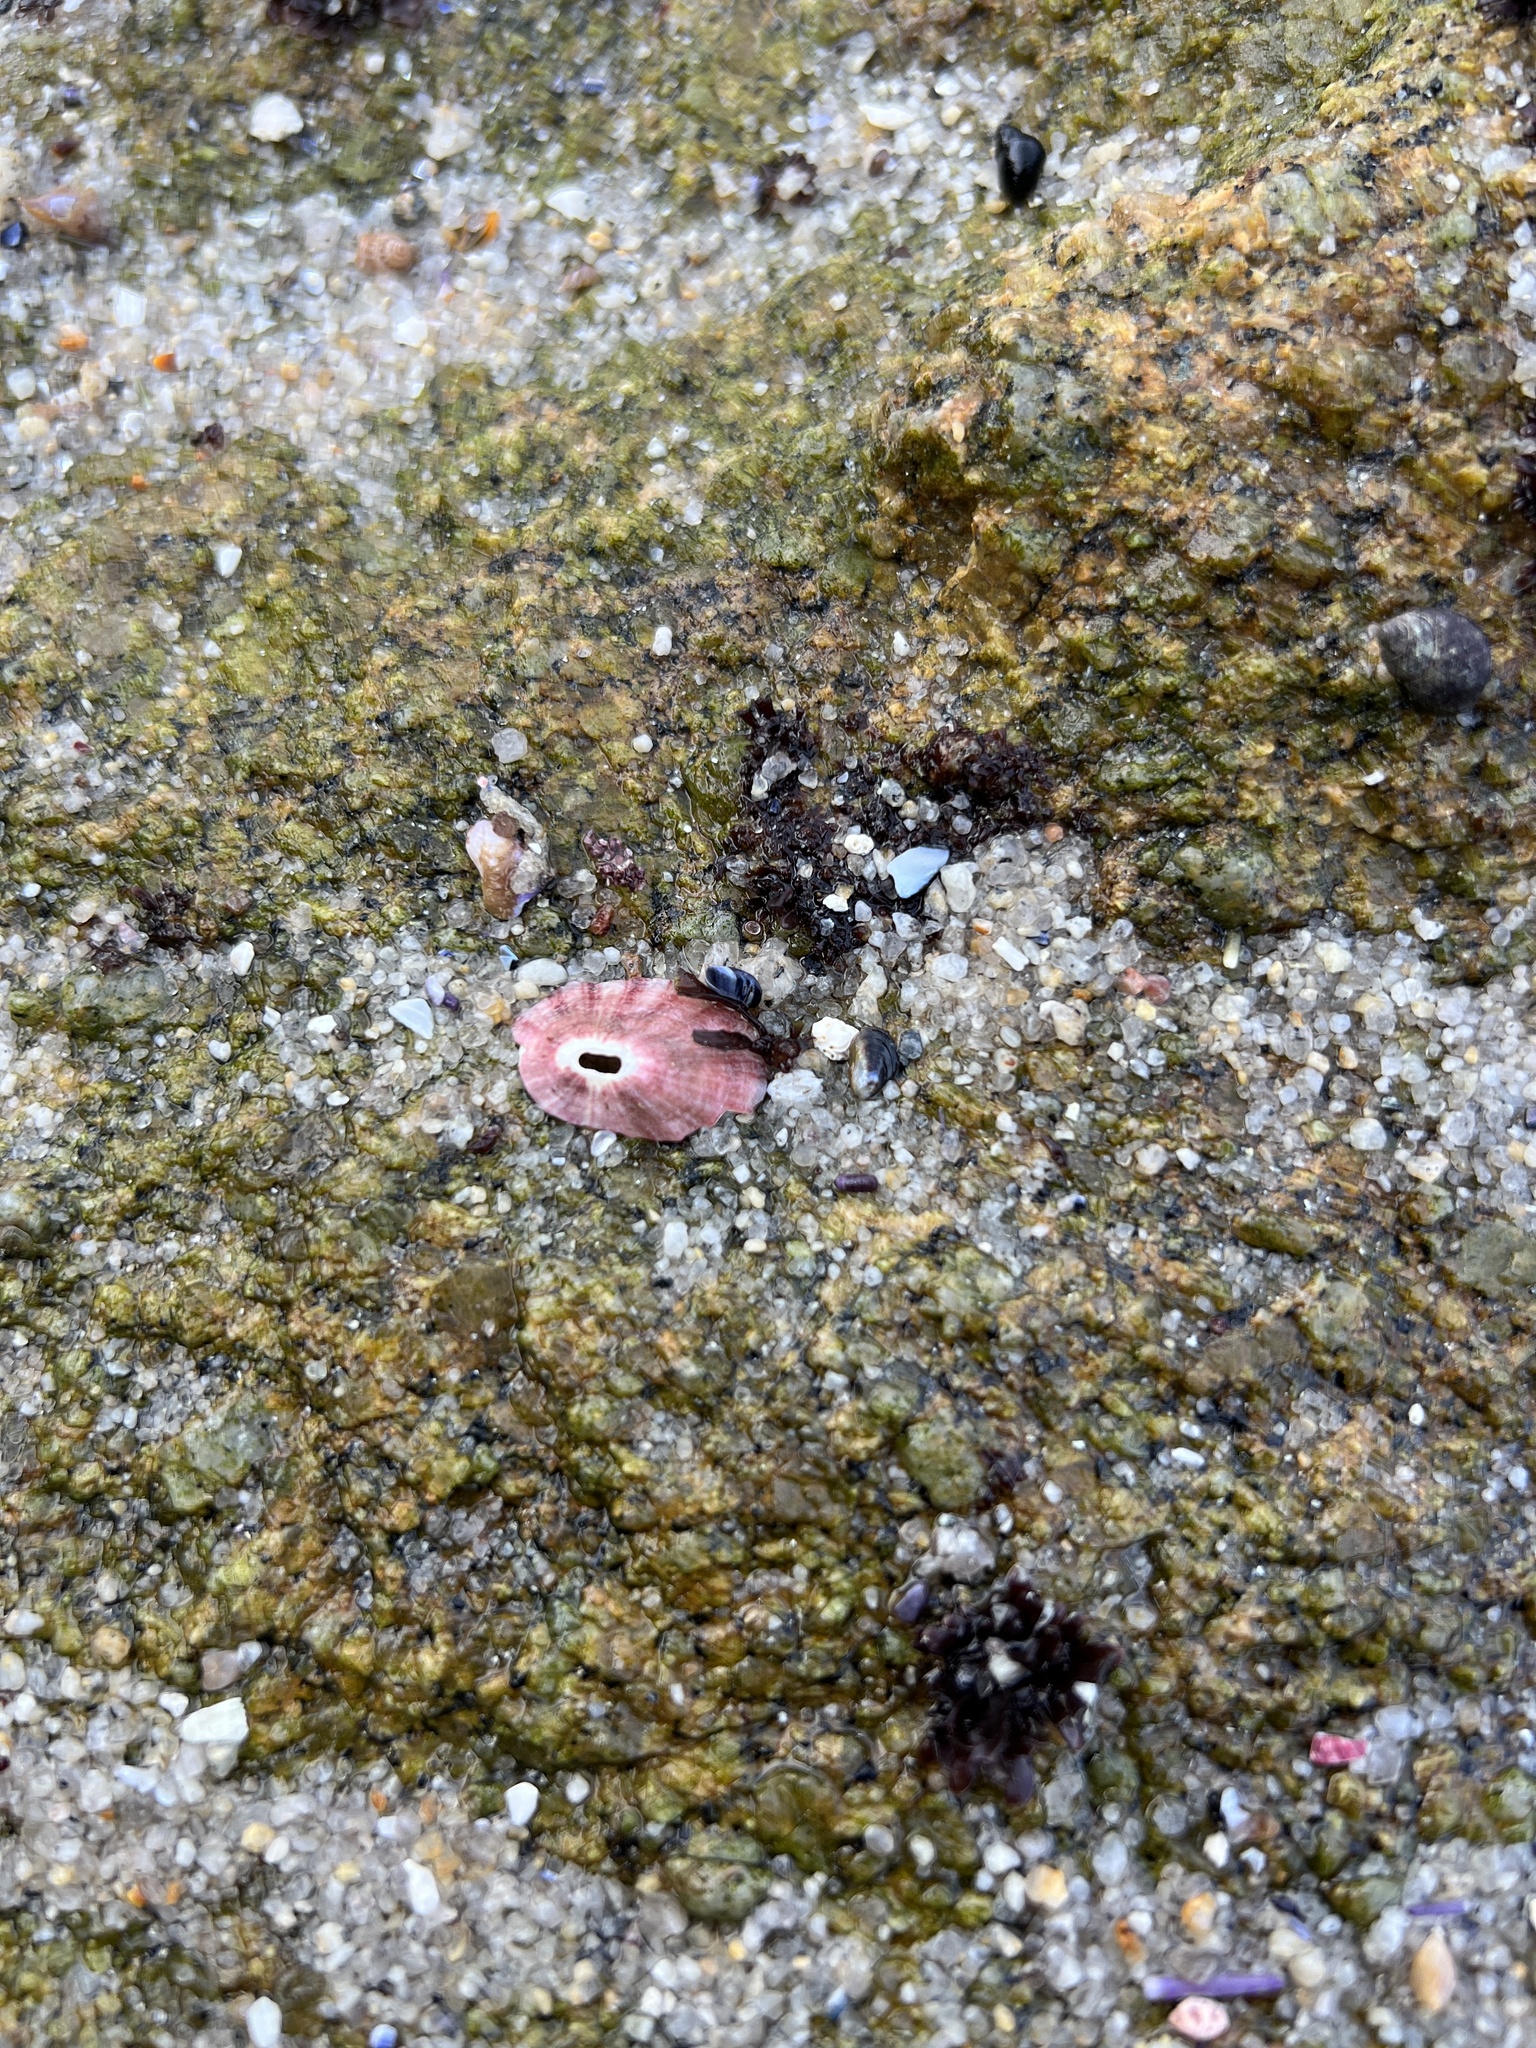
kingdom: Animalia
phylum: Mollusca
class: Gastropoda
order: Lepetellida
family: Fissurellidae
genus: Fissurella
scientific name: Fissurella volcano
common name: Volcano keyhole limpet
